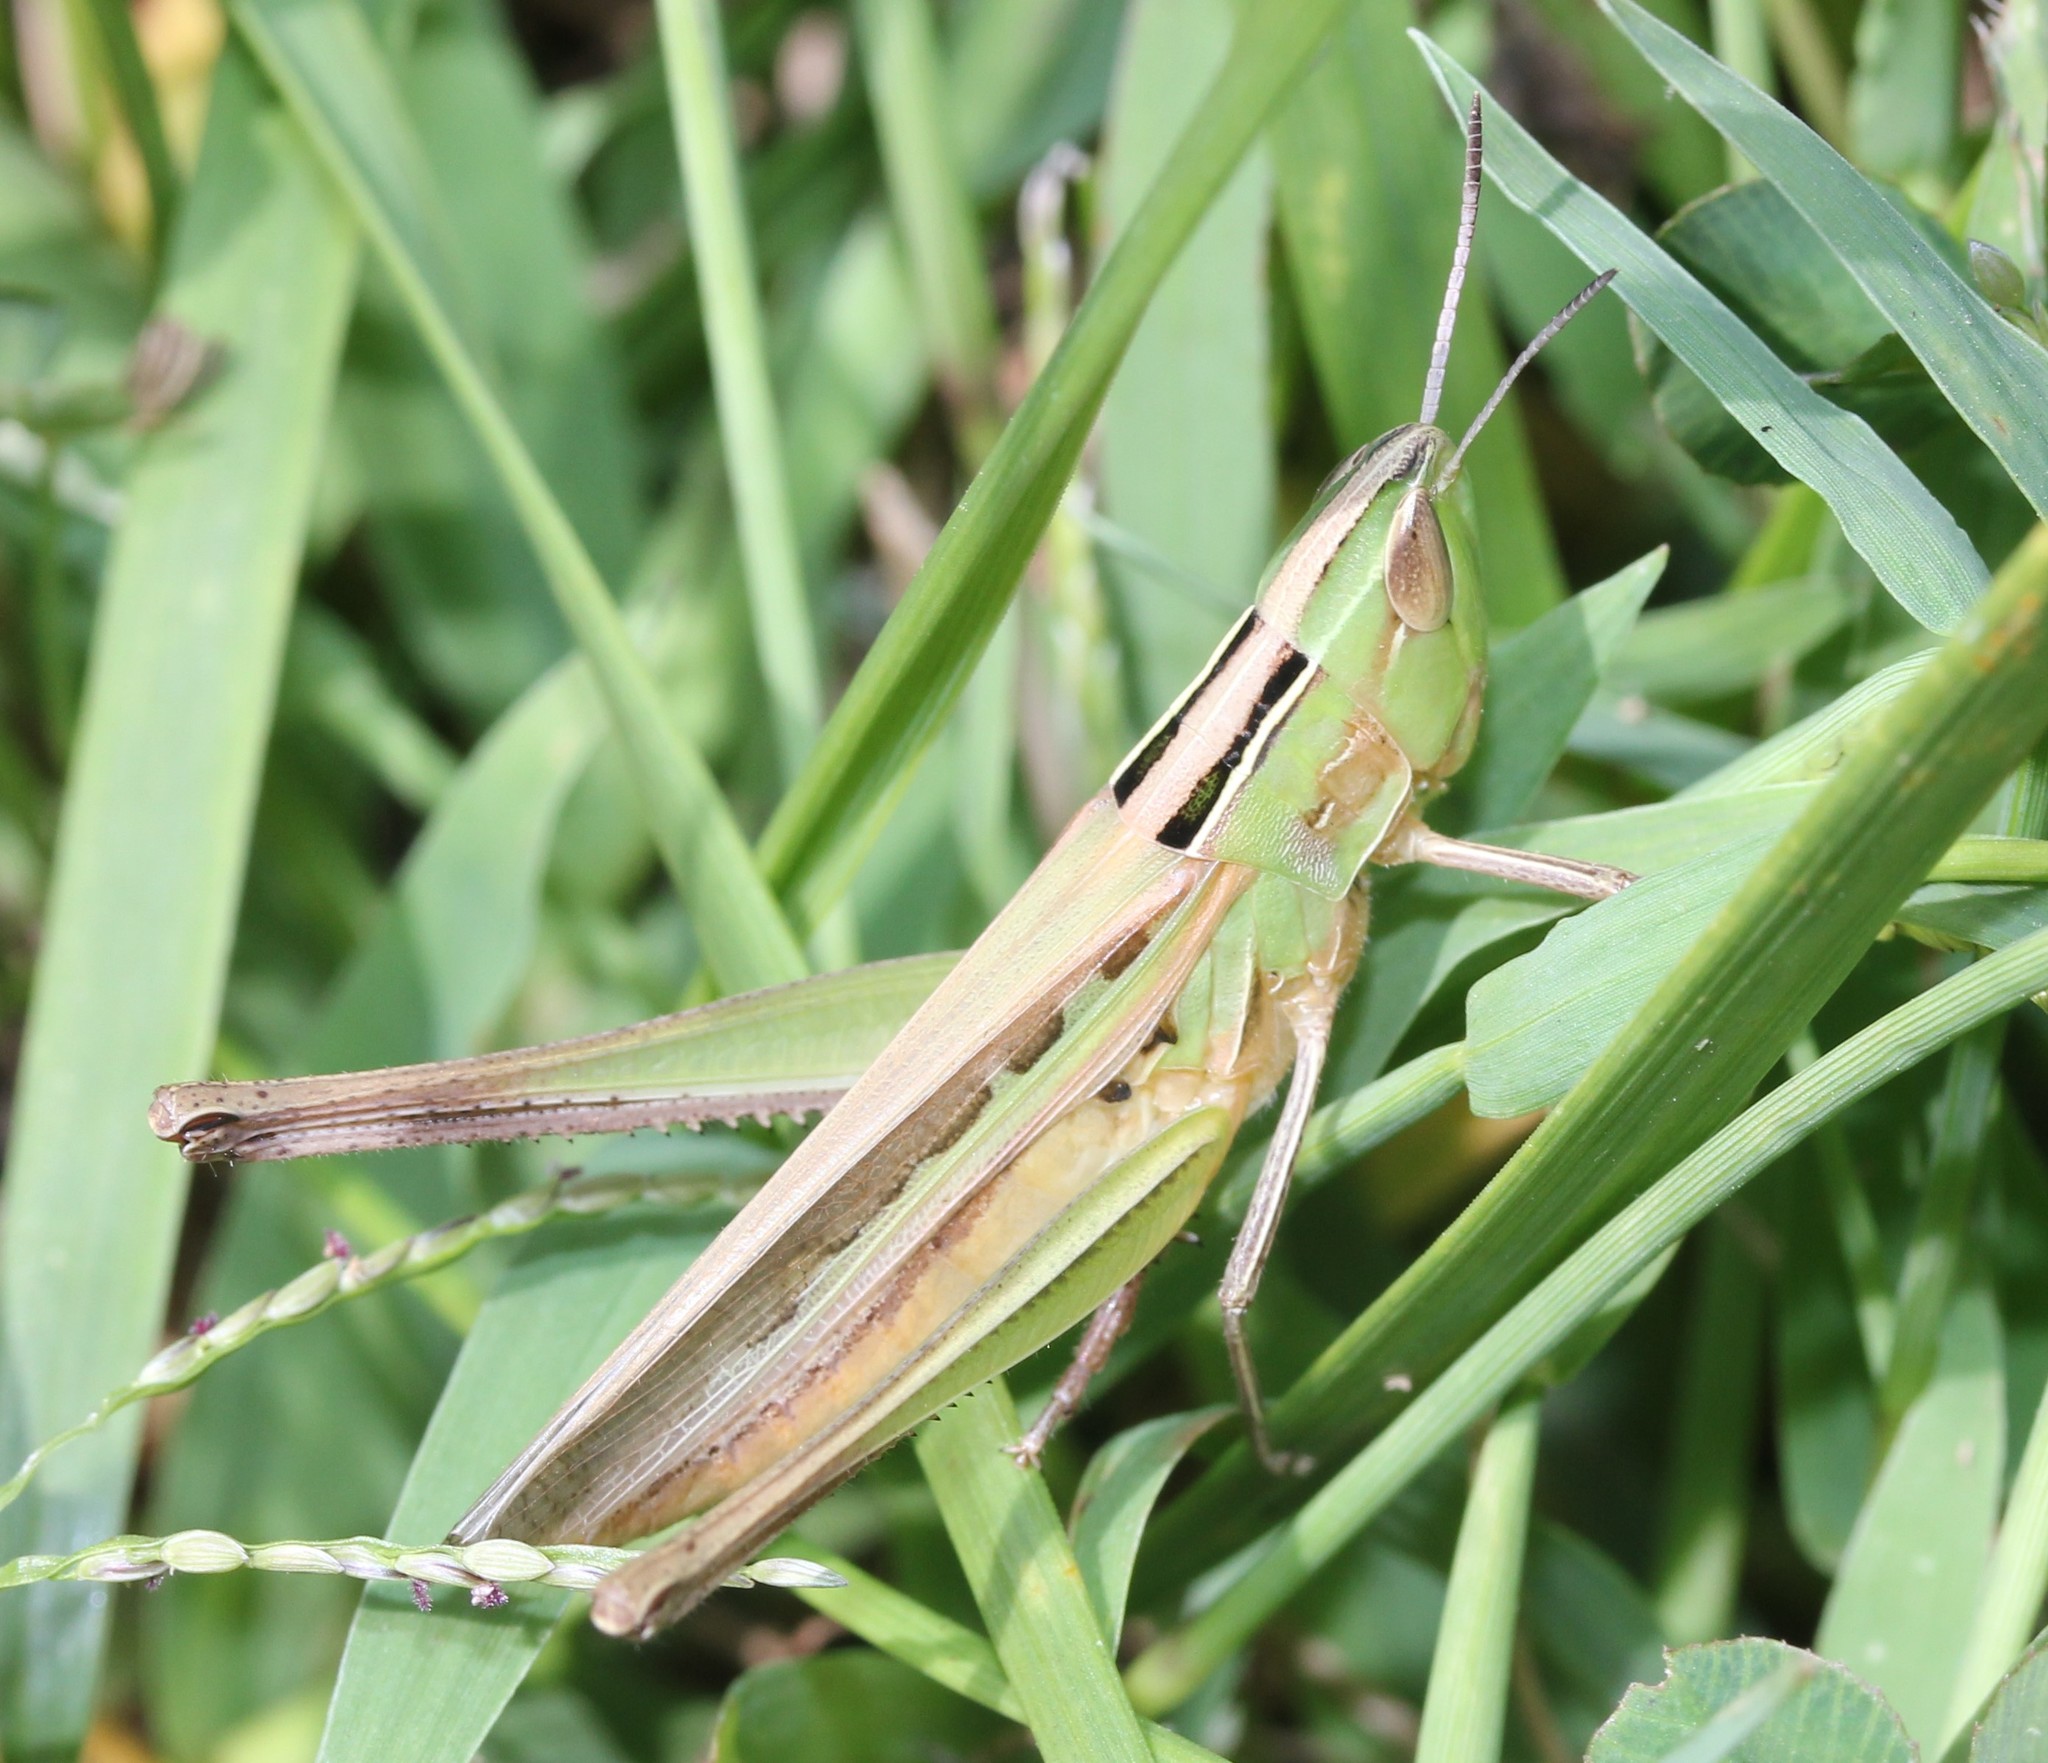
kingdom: Animalia
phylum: Arthropoda
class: Insecta
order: Orthoptera
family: Acrididae
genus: Syrbula
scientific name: Syrbula admirabilis
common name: Handsome grasshopper
